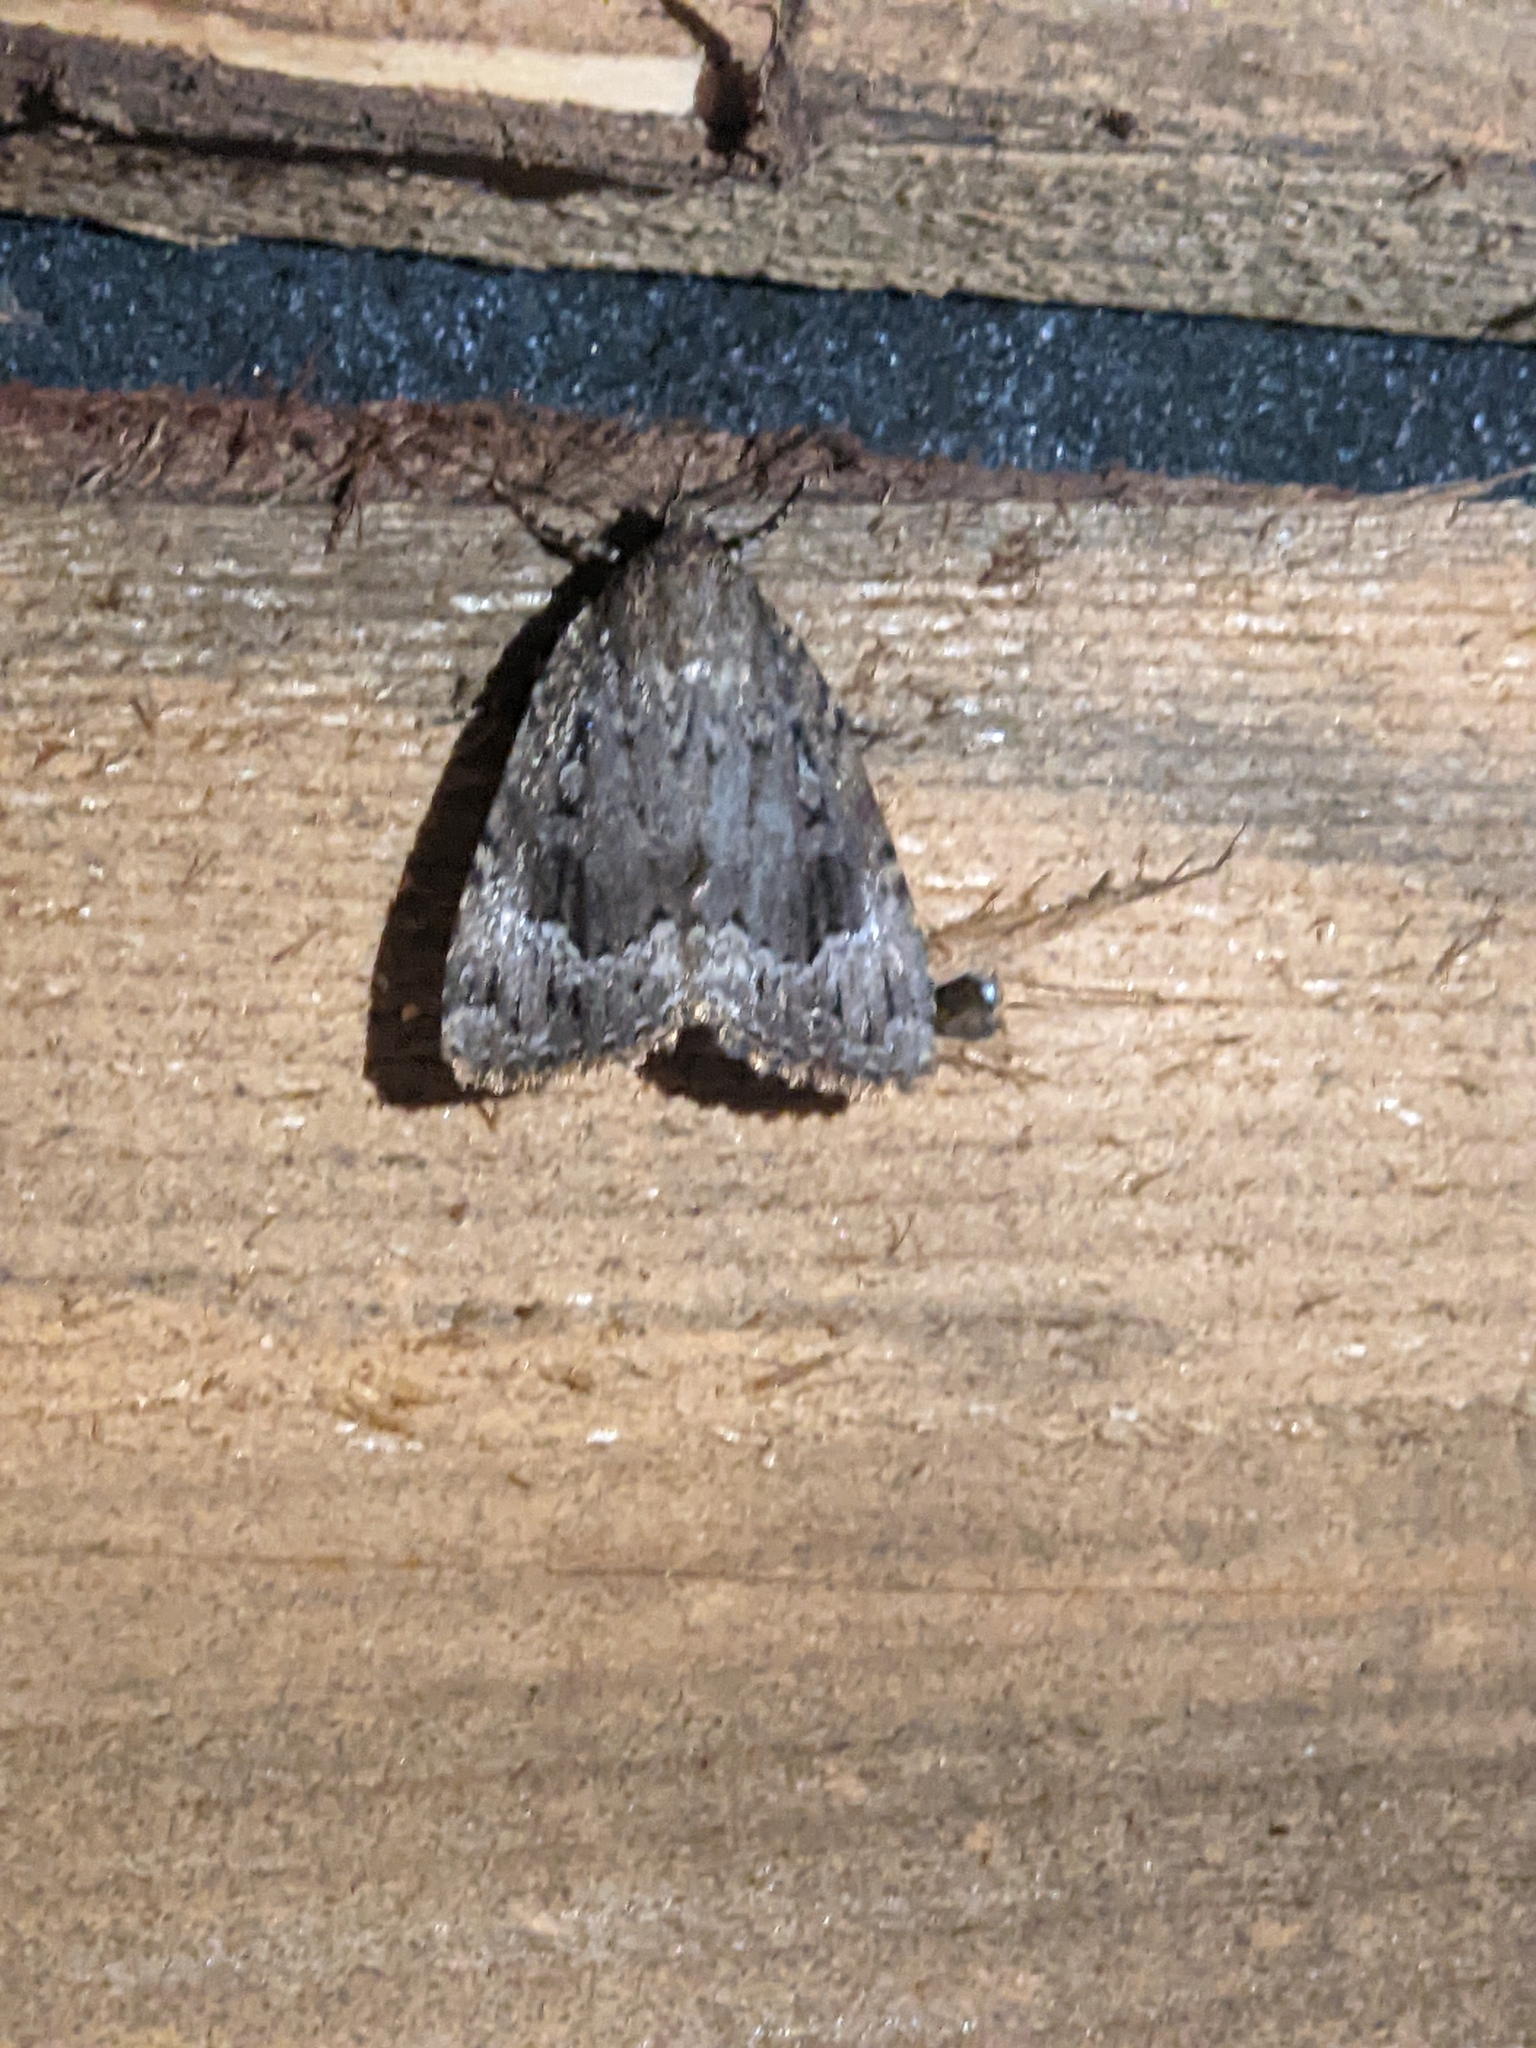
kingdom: Animalia
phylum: Arthropoda
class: Insecta
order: Lepidoptera
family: Noctuidae
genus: Amphipyra
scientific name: Amphipyra pyramidoides
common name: American copper underwing
